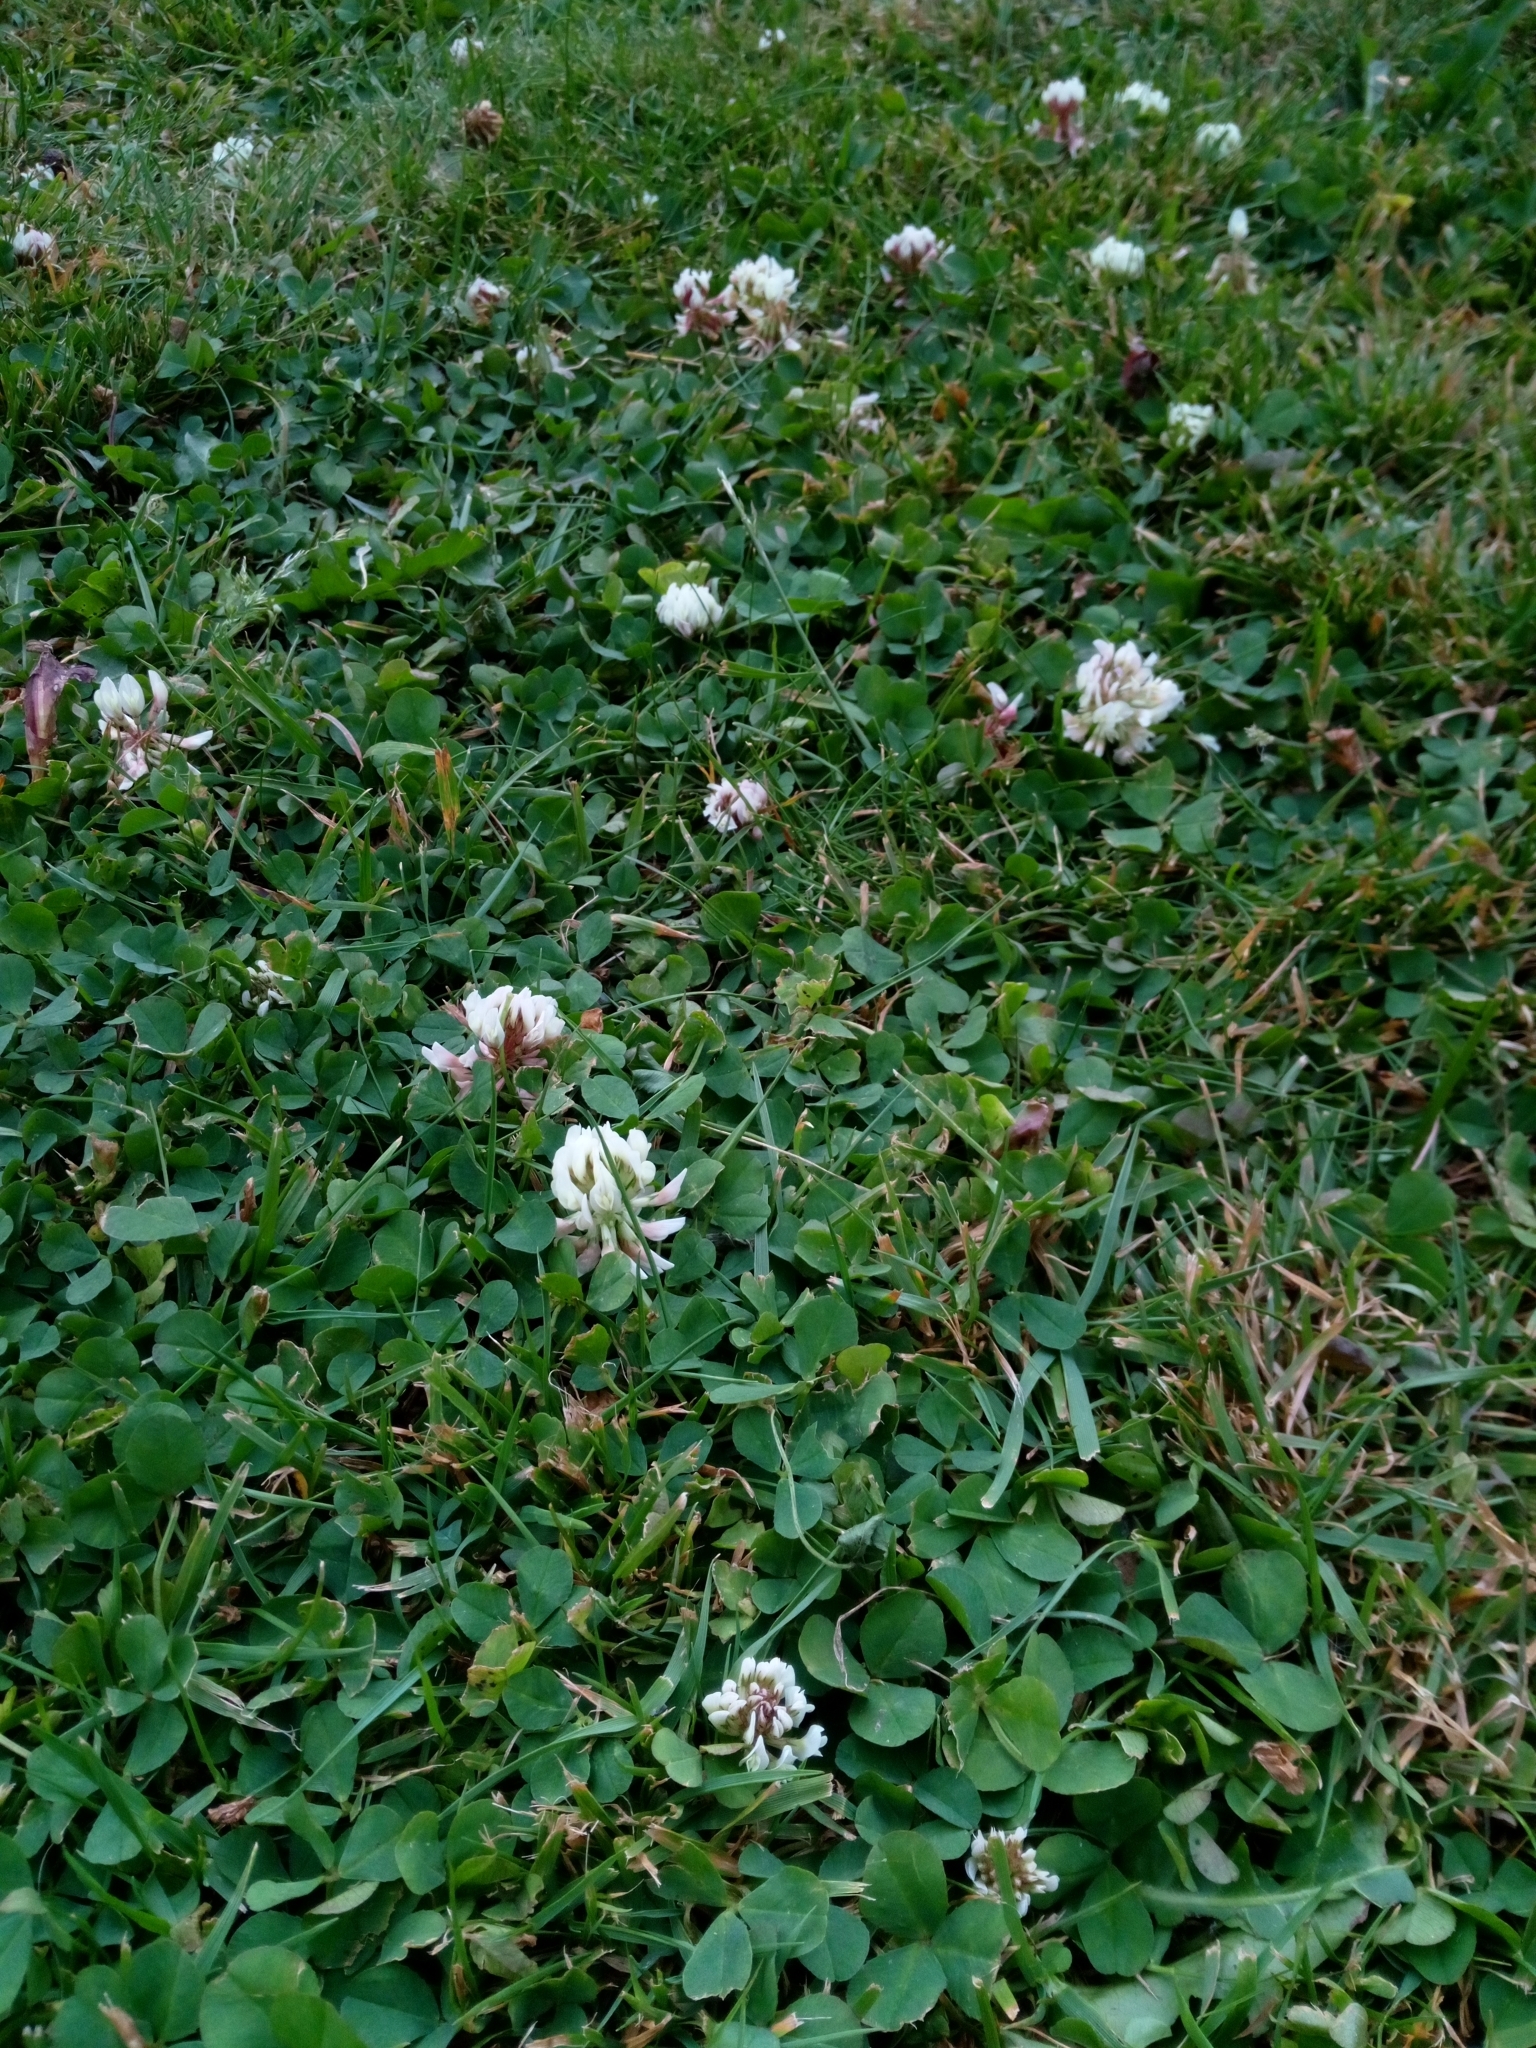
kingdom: Plantae
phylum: Tracheophyta
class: Magnoliopsida
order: Fabales
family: Fabaceae
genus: Trifolium
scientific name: Trifolium repens
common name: White clover
